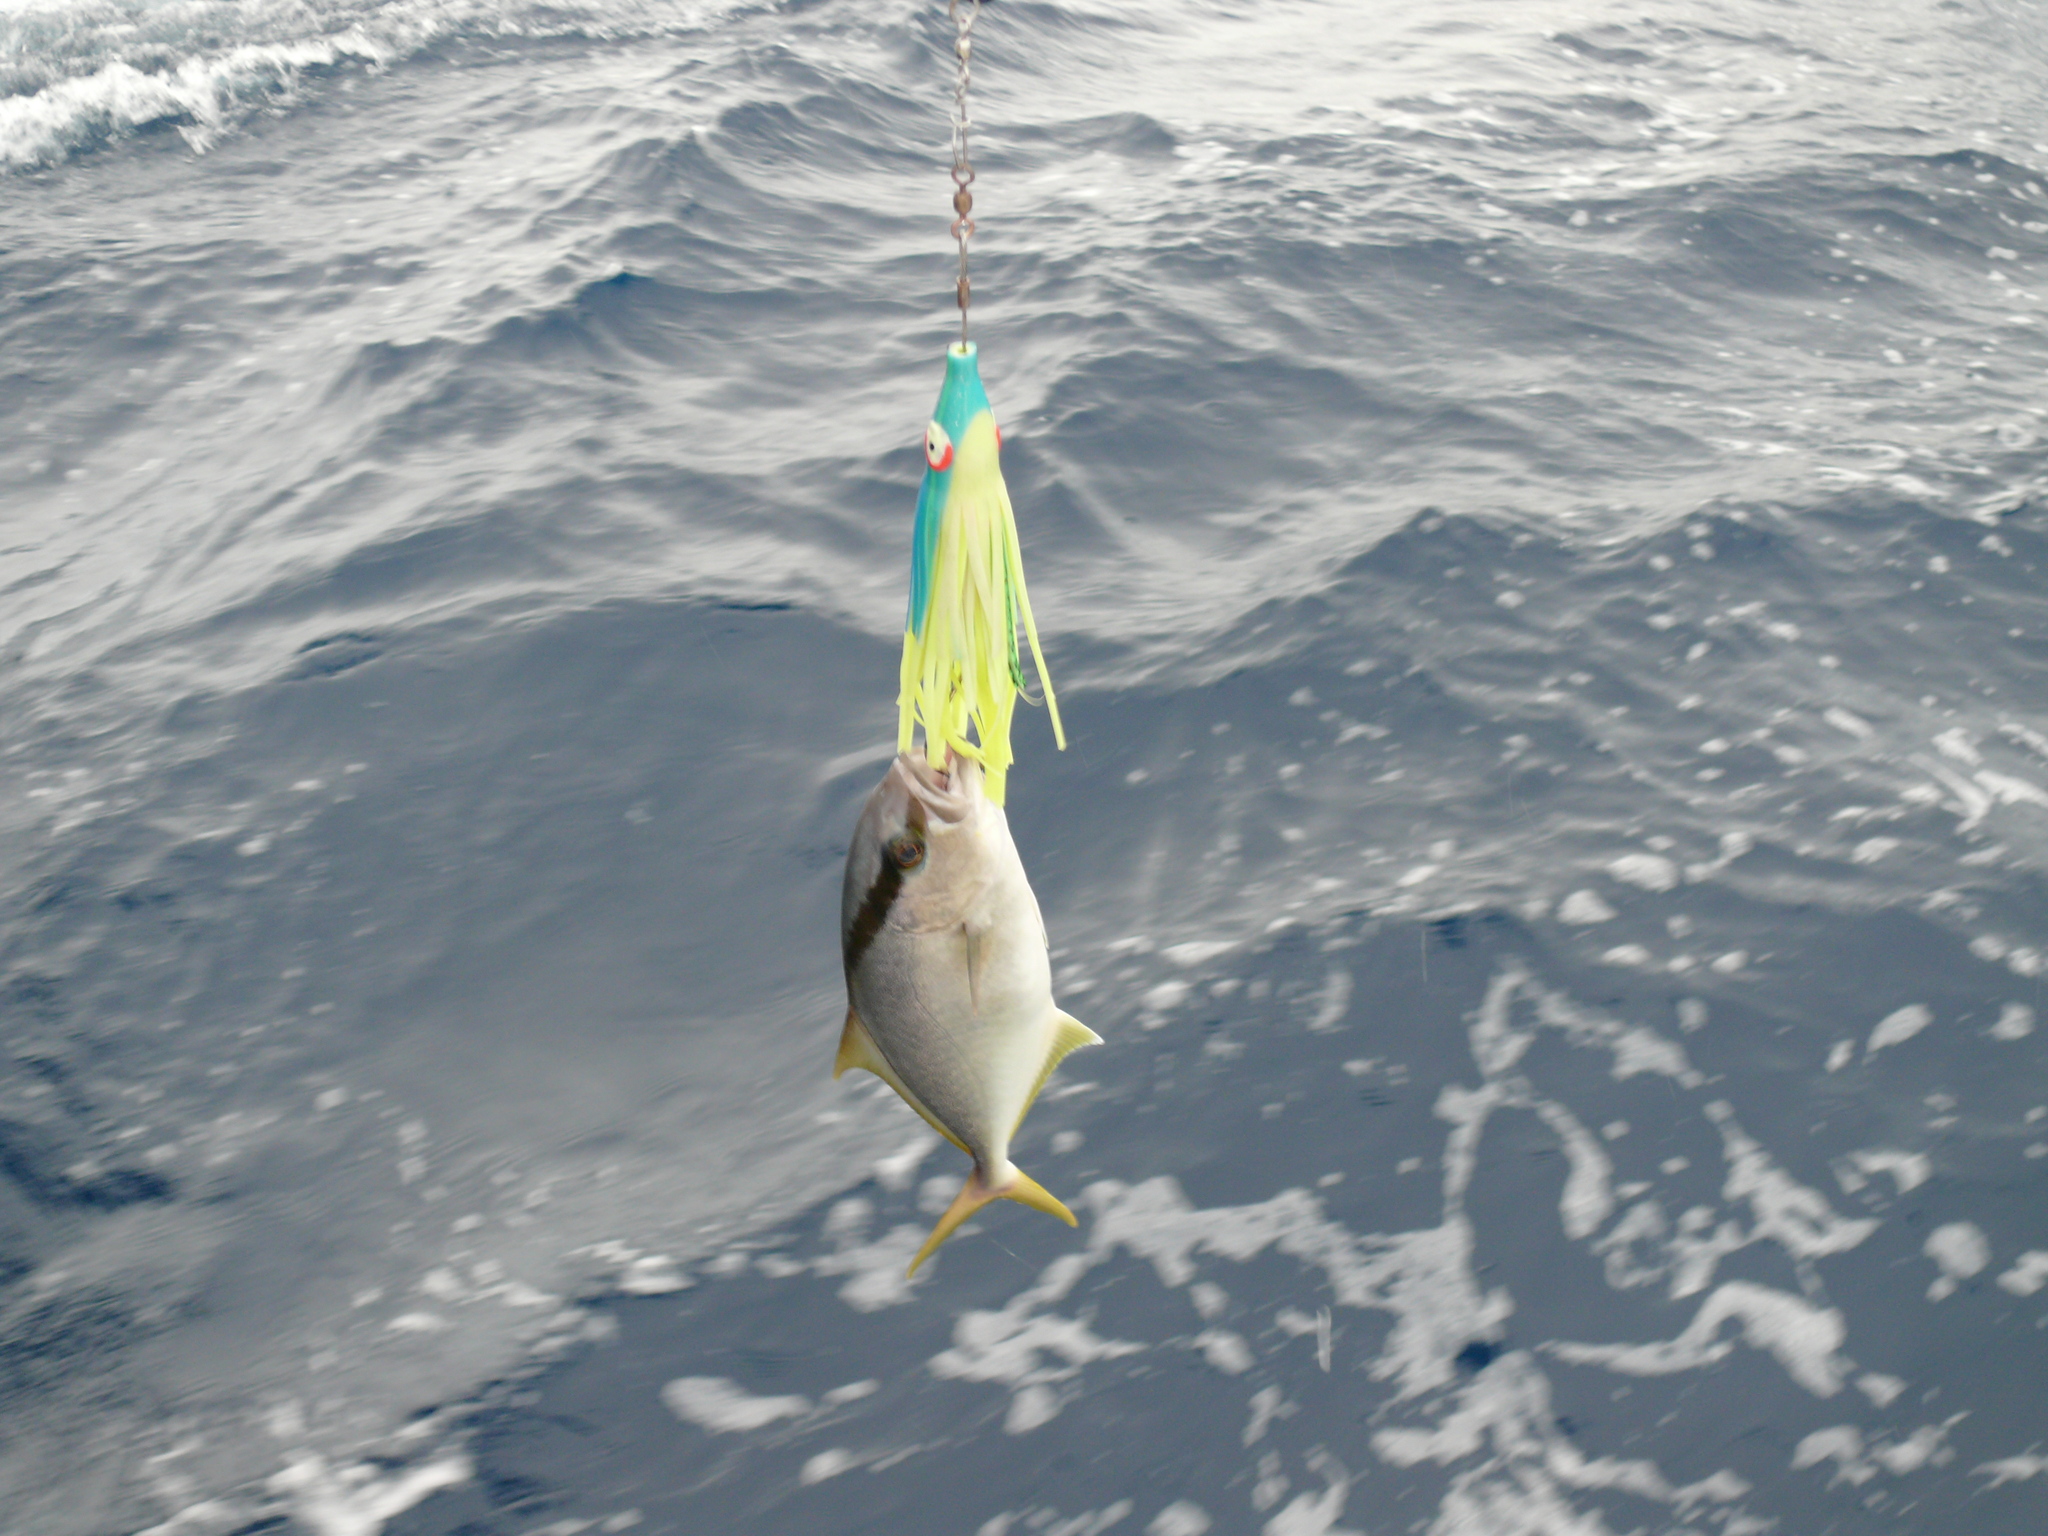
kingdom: Animalia
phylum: Chordata
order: Perciformes
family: Carangidae
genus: Seriola
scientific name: Seriola rivoliana
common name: Almaco jack
